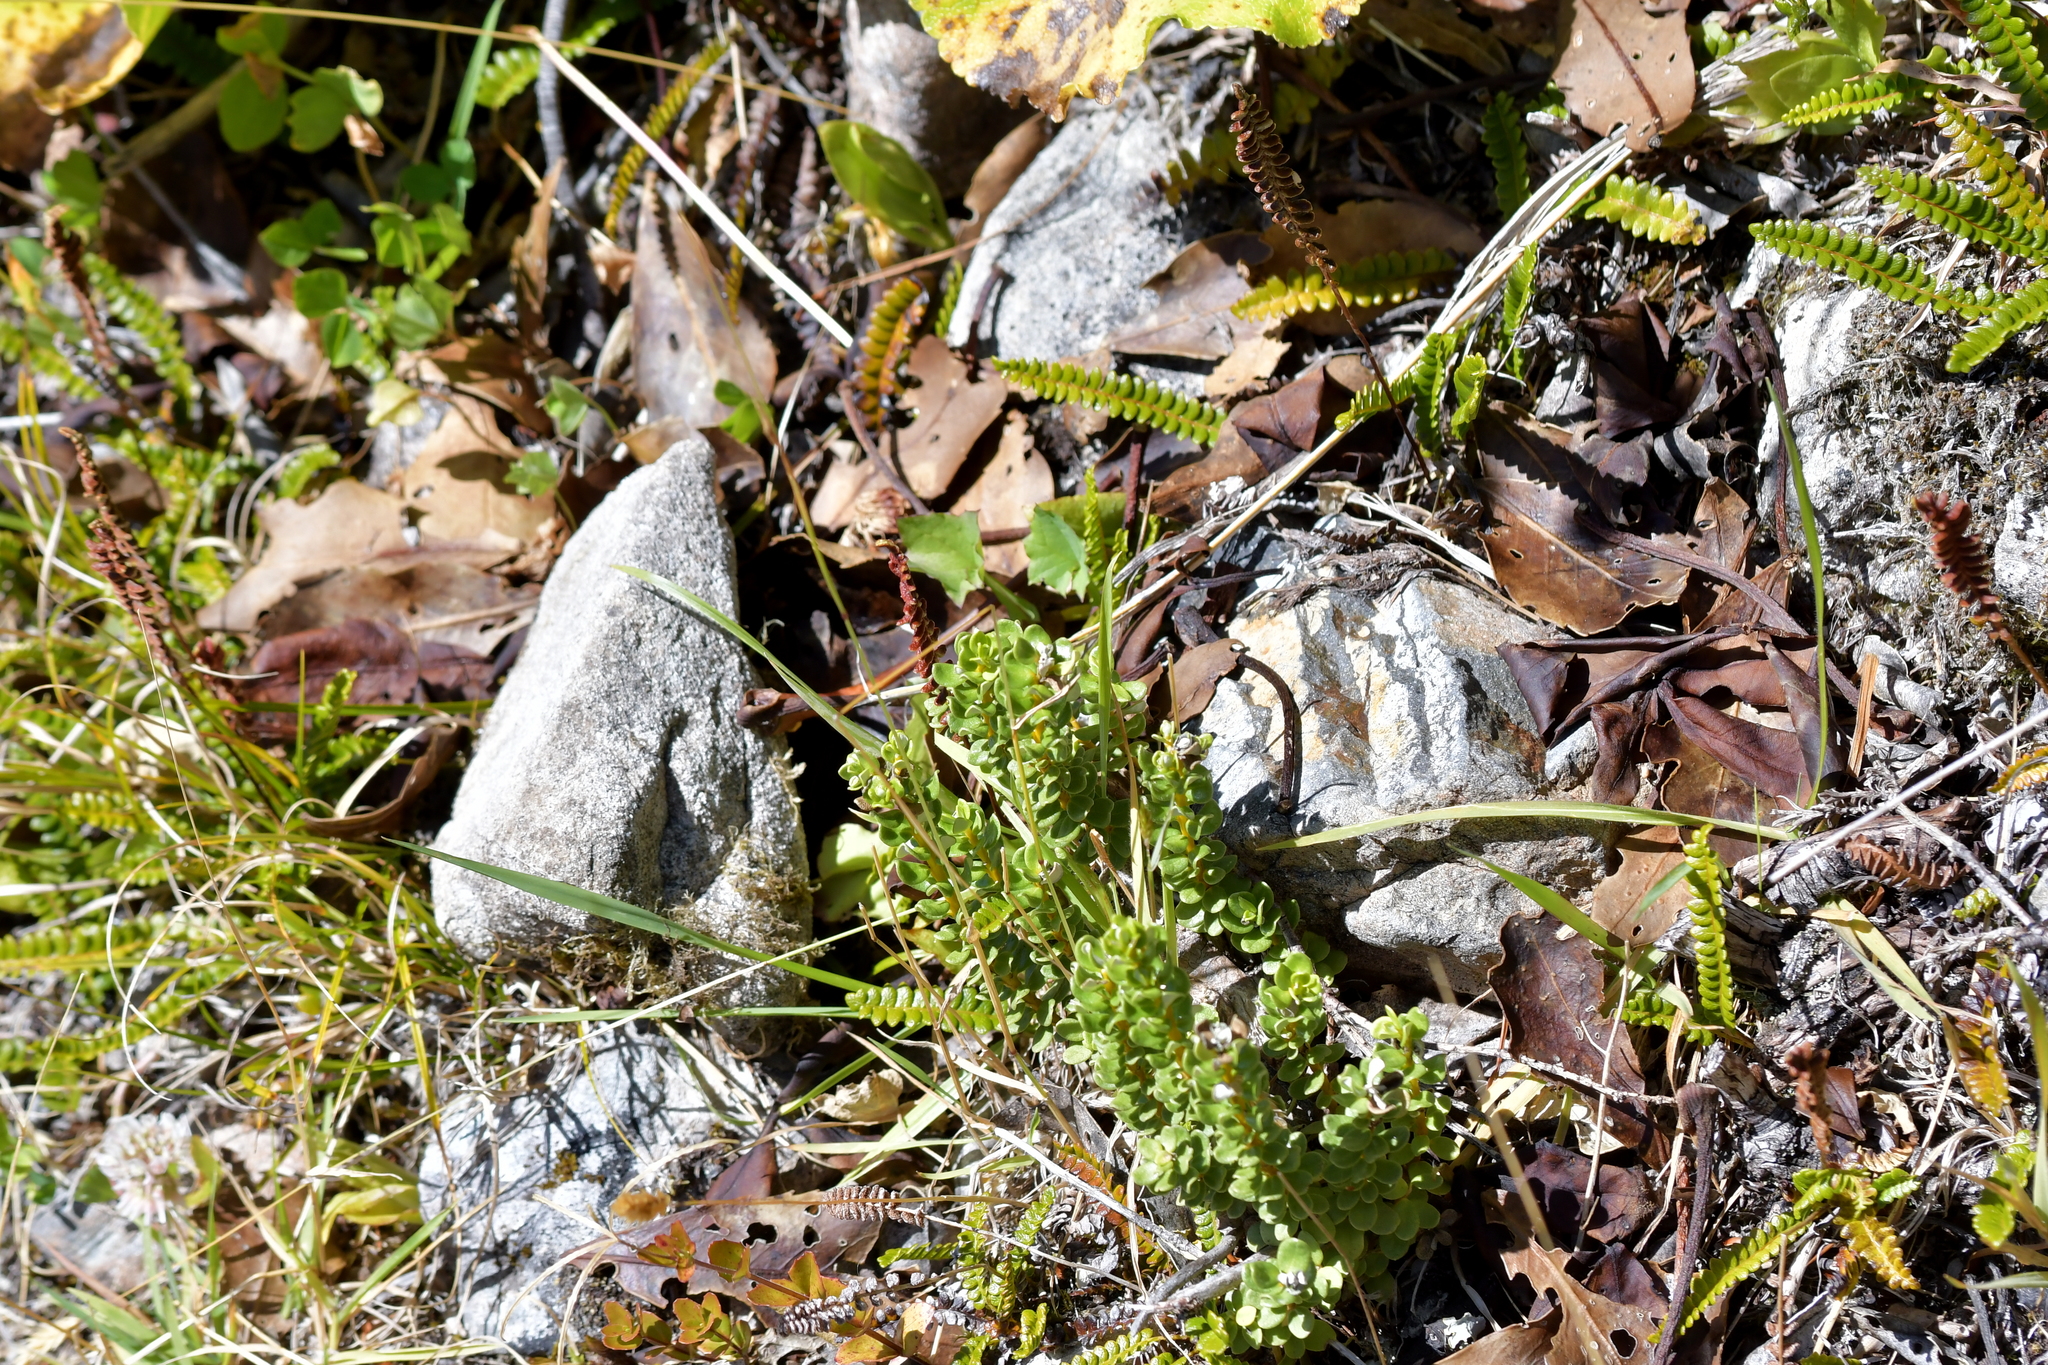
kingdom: Plantae
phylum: Tracheophyta
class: Magnoliopsida
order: Asterales
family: Asteraceae
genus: Olearia
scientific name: Olearia nummularifolia
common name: Sticky daisybush
